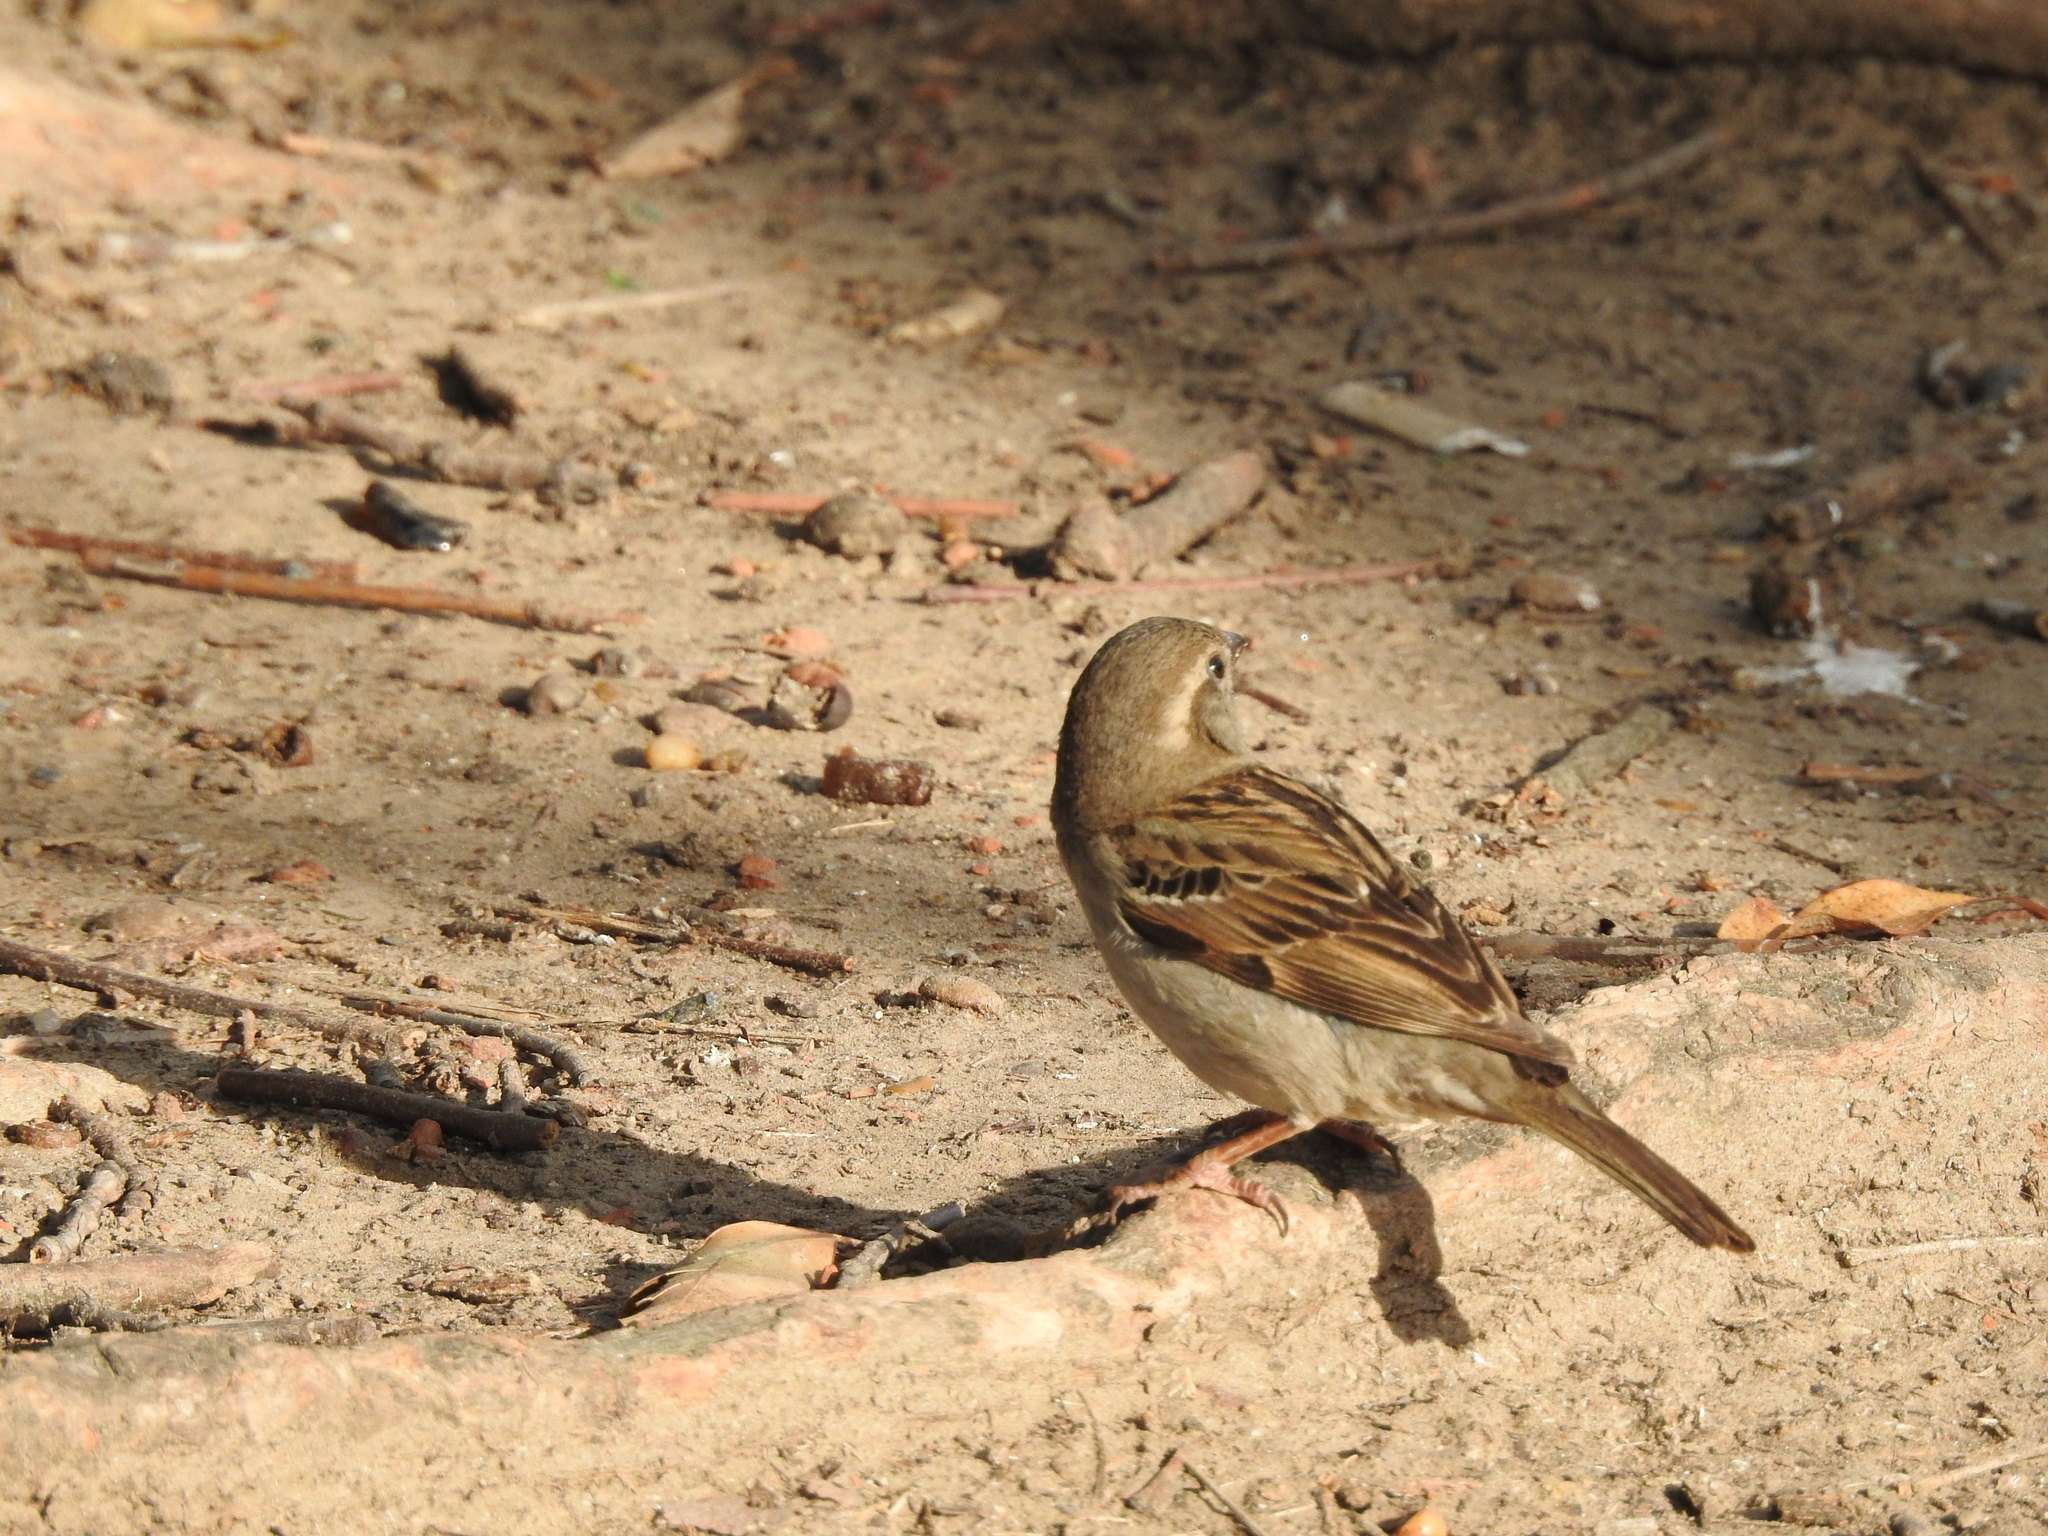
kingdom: Animalia
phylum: Chordata
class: Aves
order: Passeriformes
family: Passeridae
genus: Passer
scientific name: Passer domesticus
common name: House sparrow
